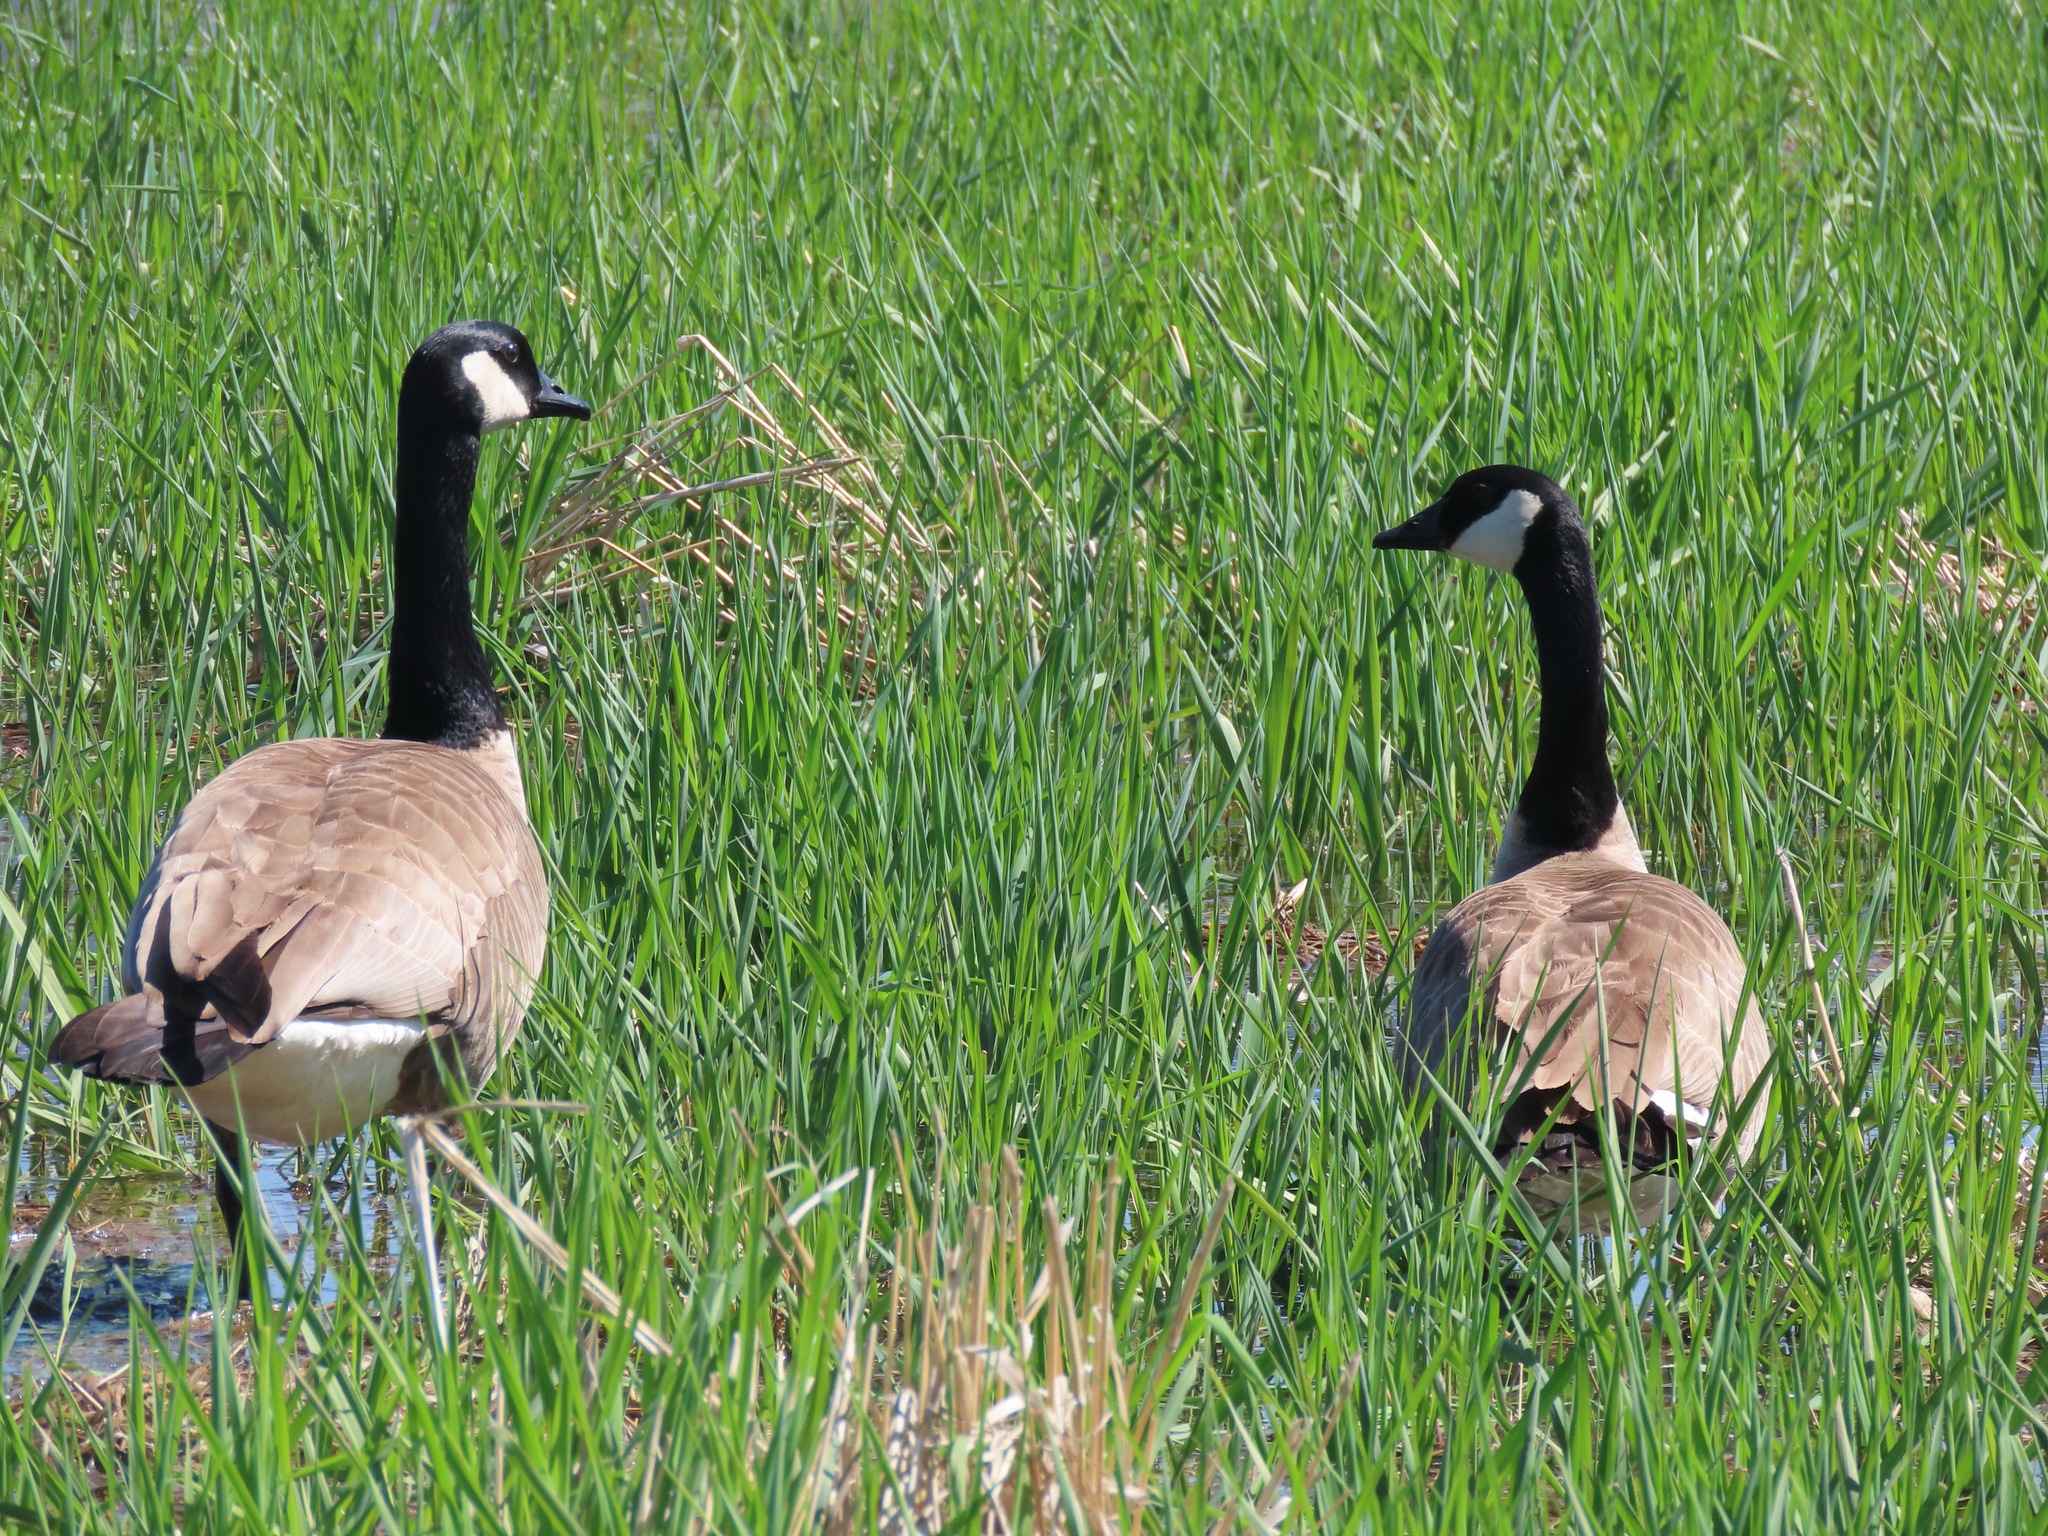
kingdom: Animalia
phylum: Chordata
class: Aves
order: Anseriformes
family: Anatidae
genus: Branta
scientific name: Branta canadensis
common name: Canada goose
